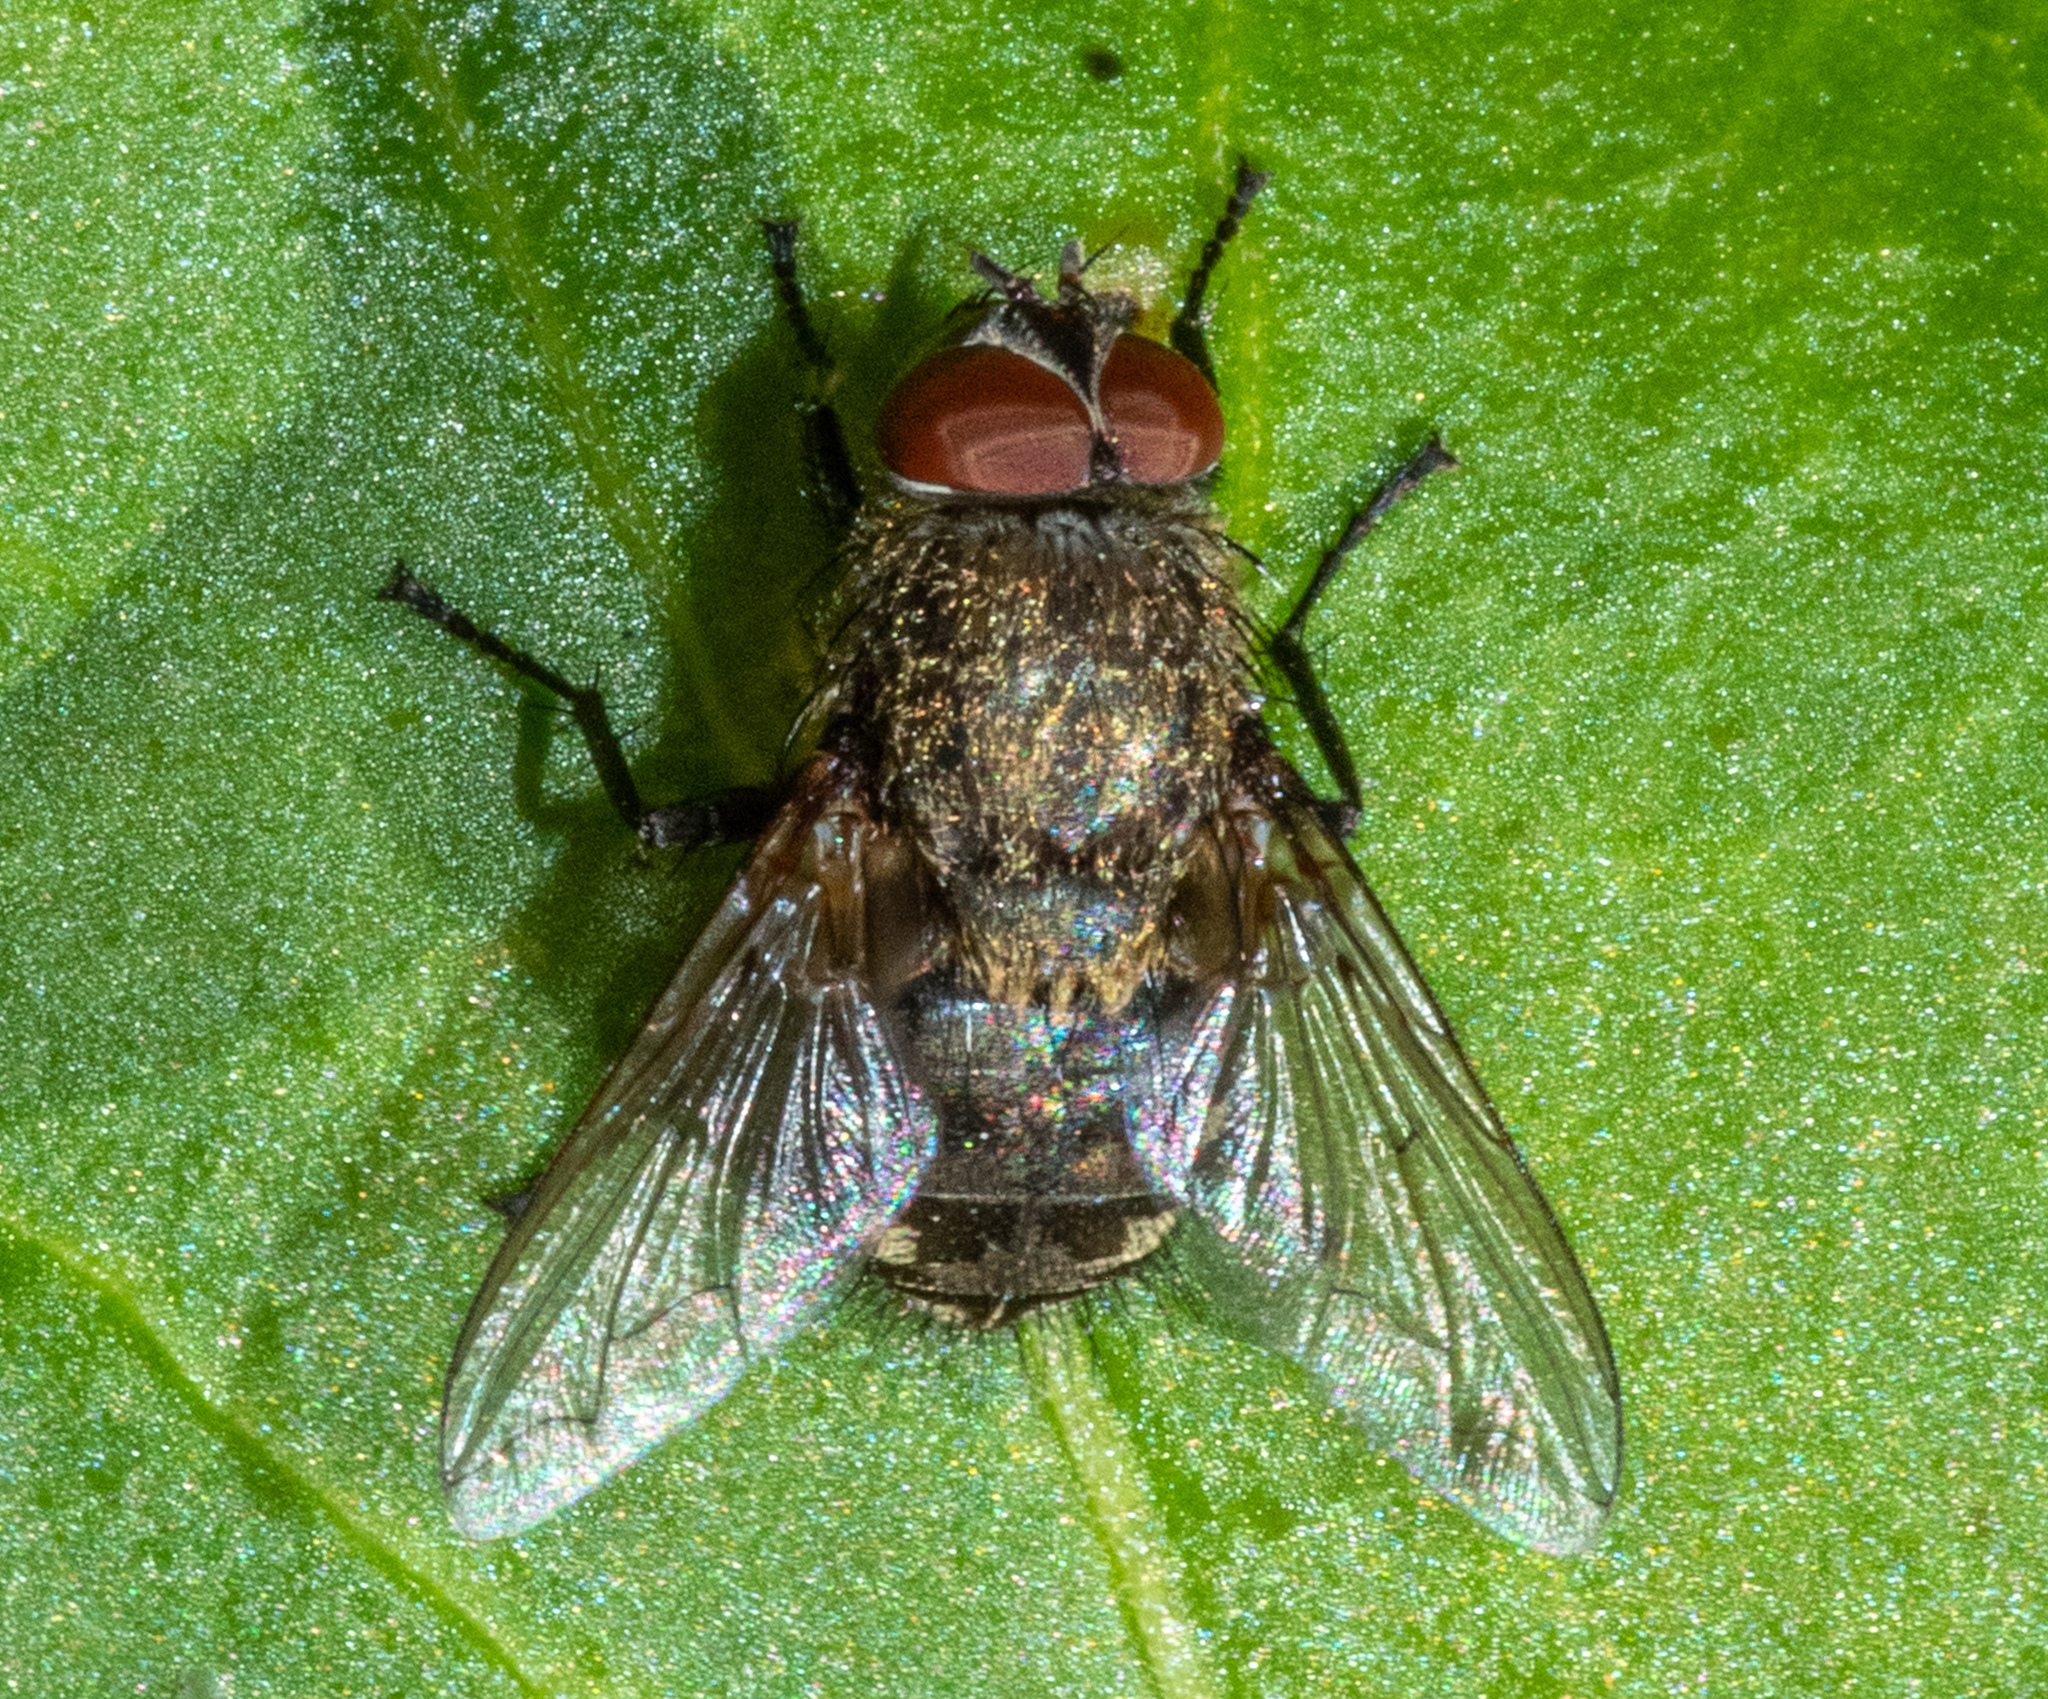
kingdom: Animalia
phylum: Arthropoda
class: Insecta
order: Diptera
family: Polleniidae
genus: Pollenia
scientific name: Pollenia
